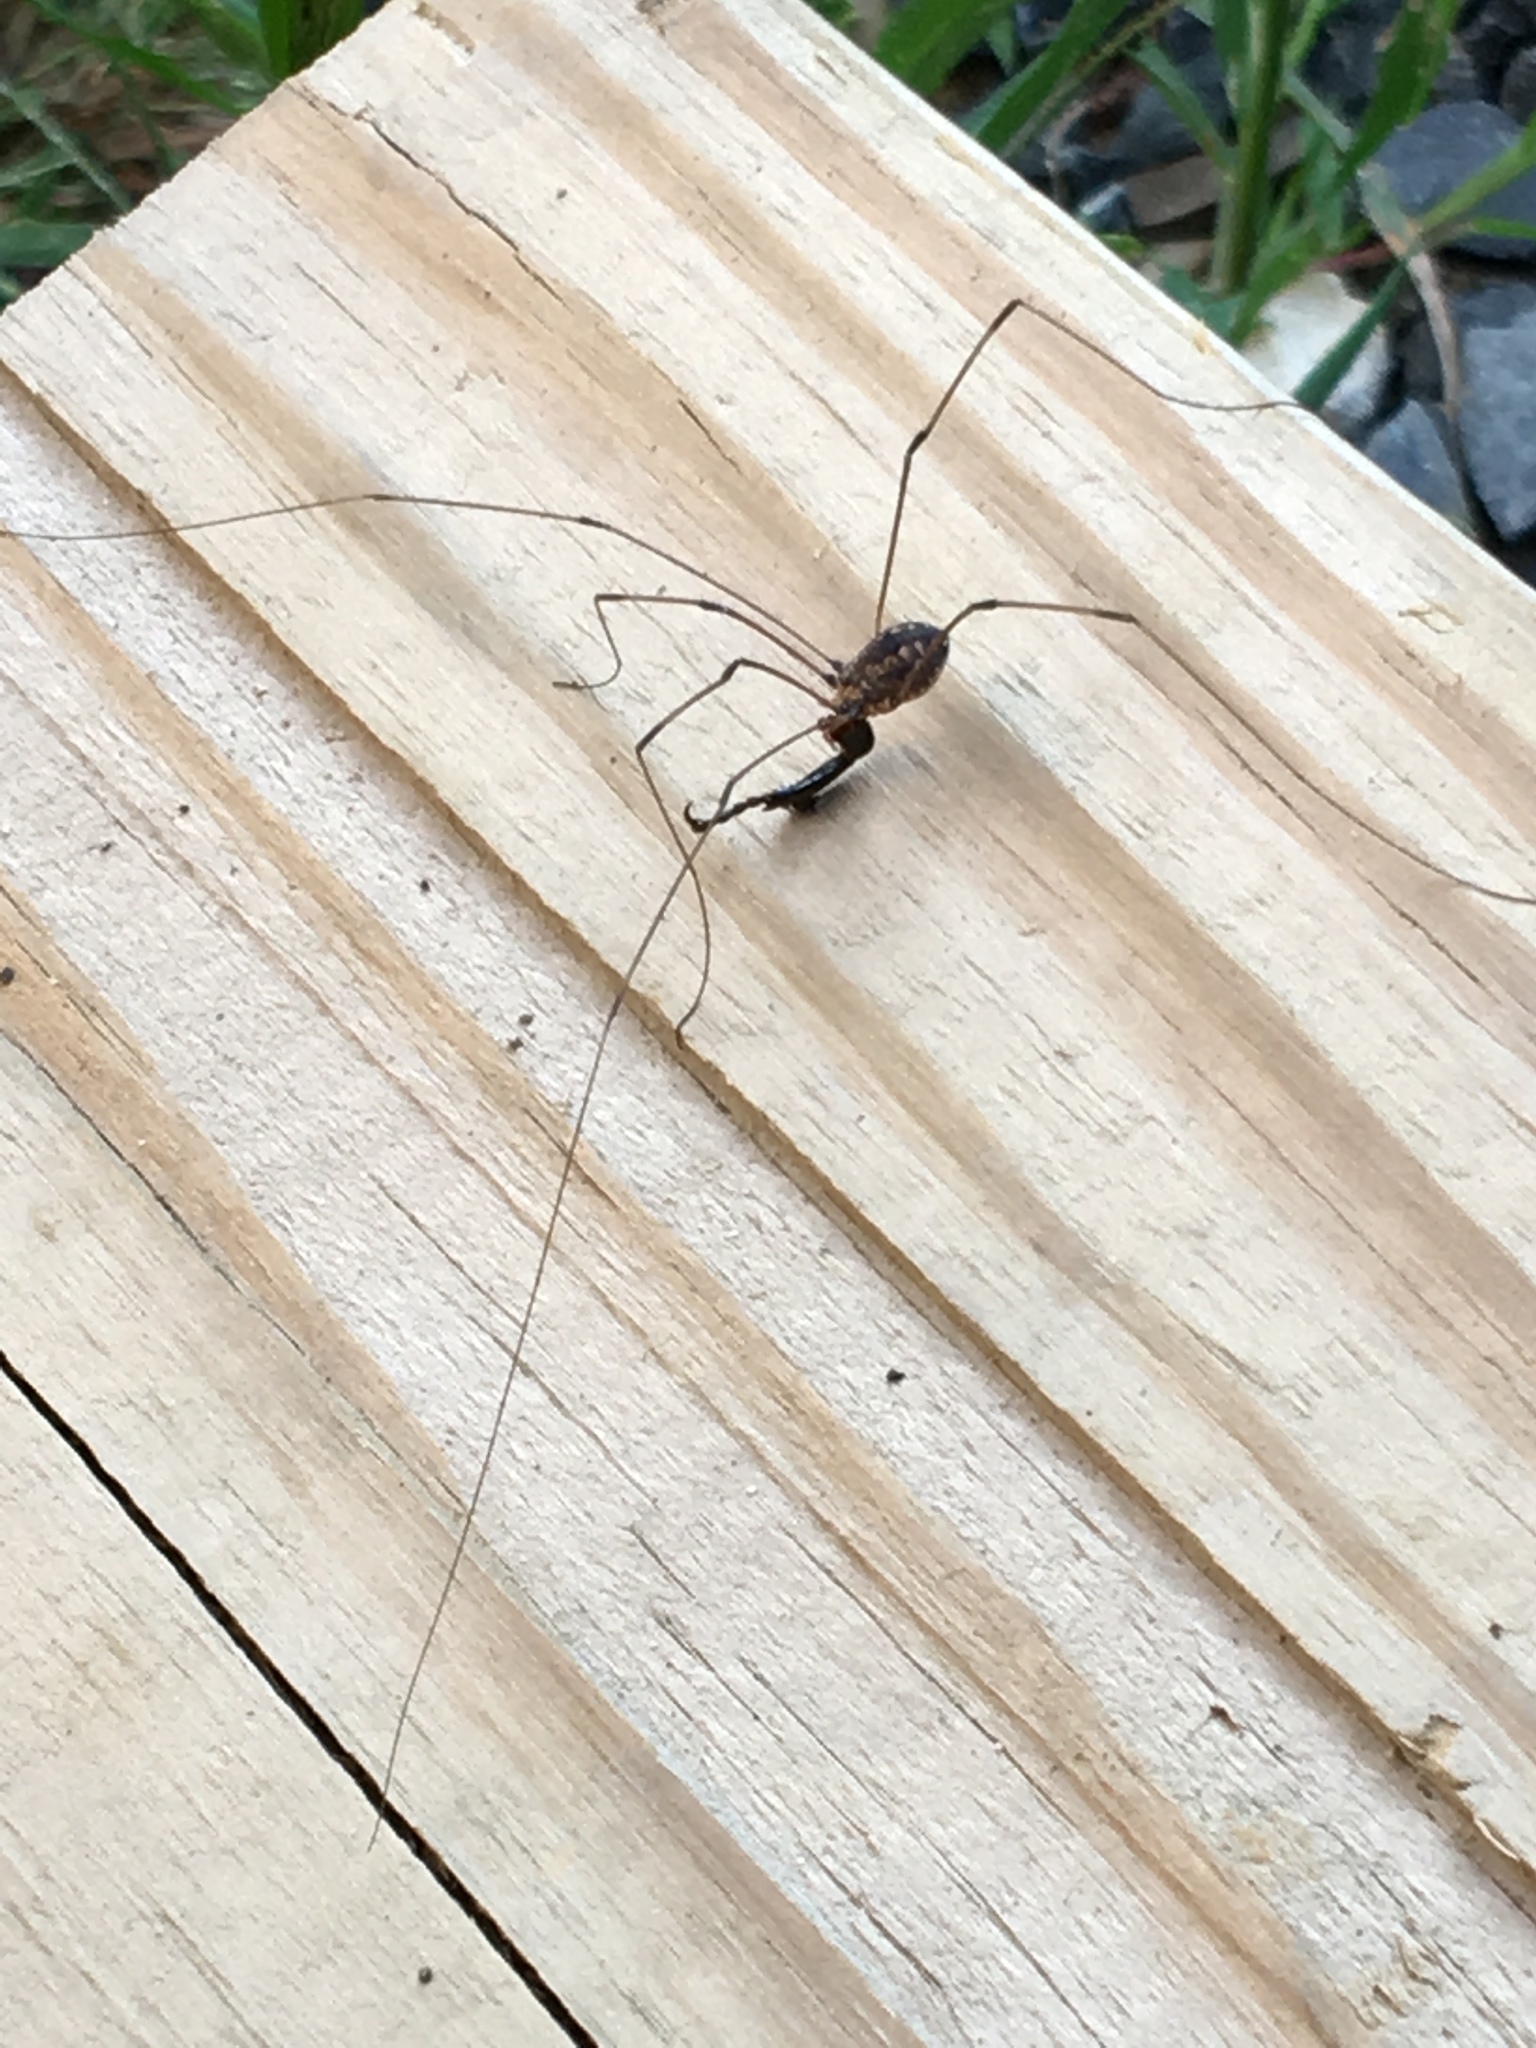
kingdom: Animalia
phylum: Arthropoda
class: Arachnida
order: Opiliones
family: Sclerosomatidae
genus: Leiobunum
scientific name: Leiobunum vittatum
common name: Eastern harvestman
